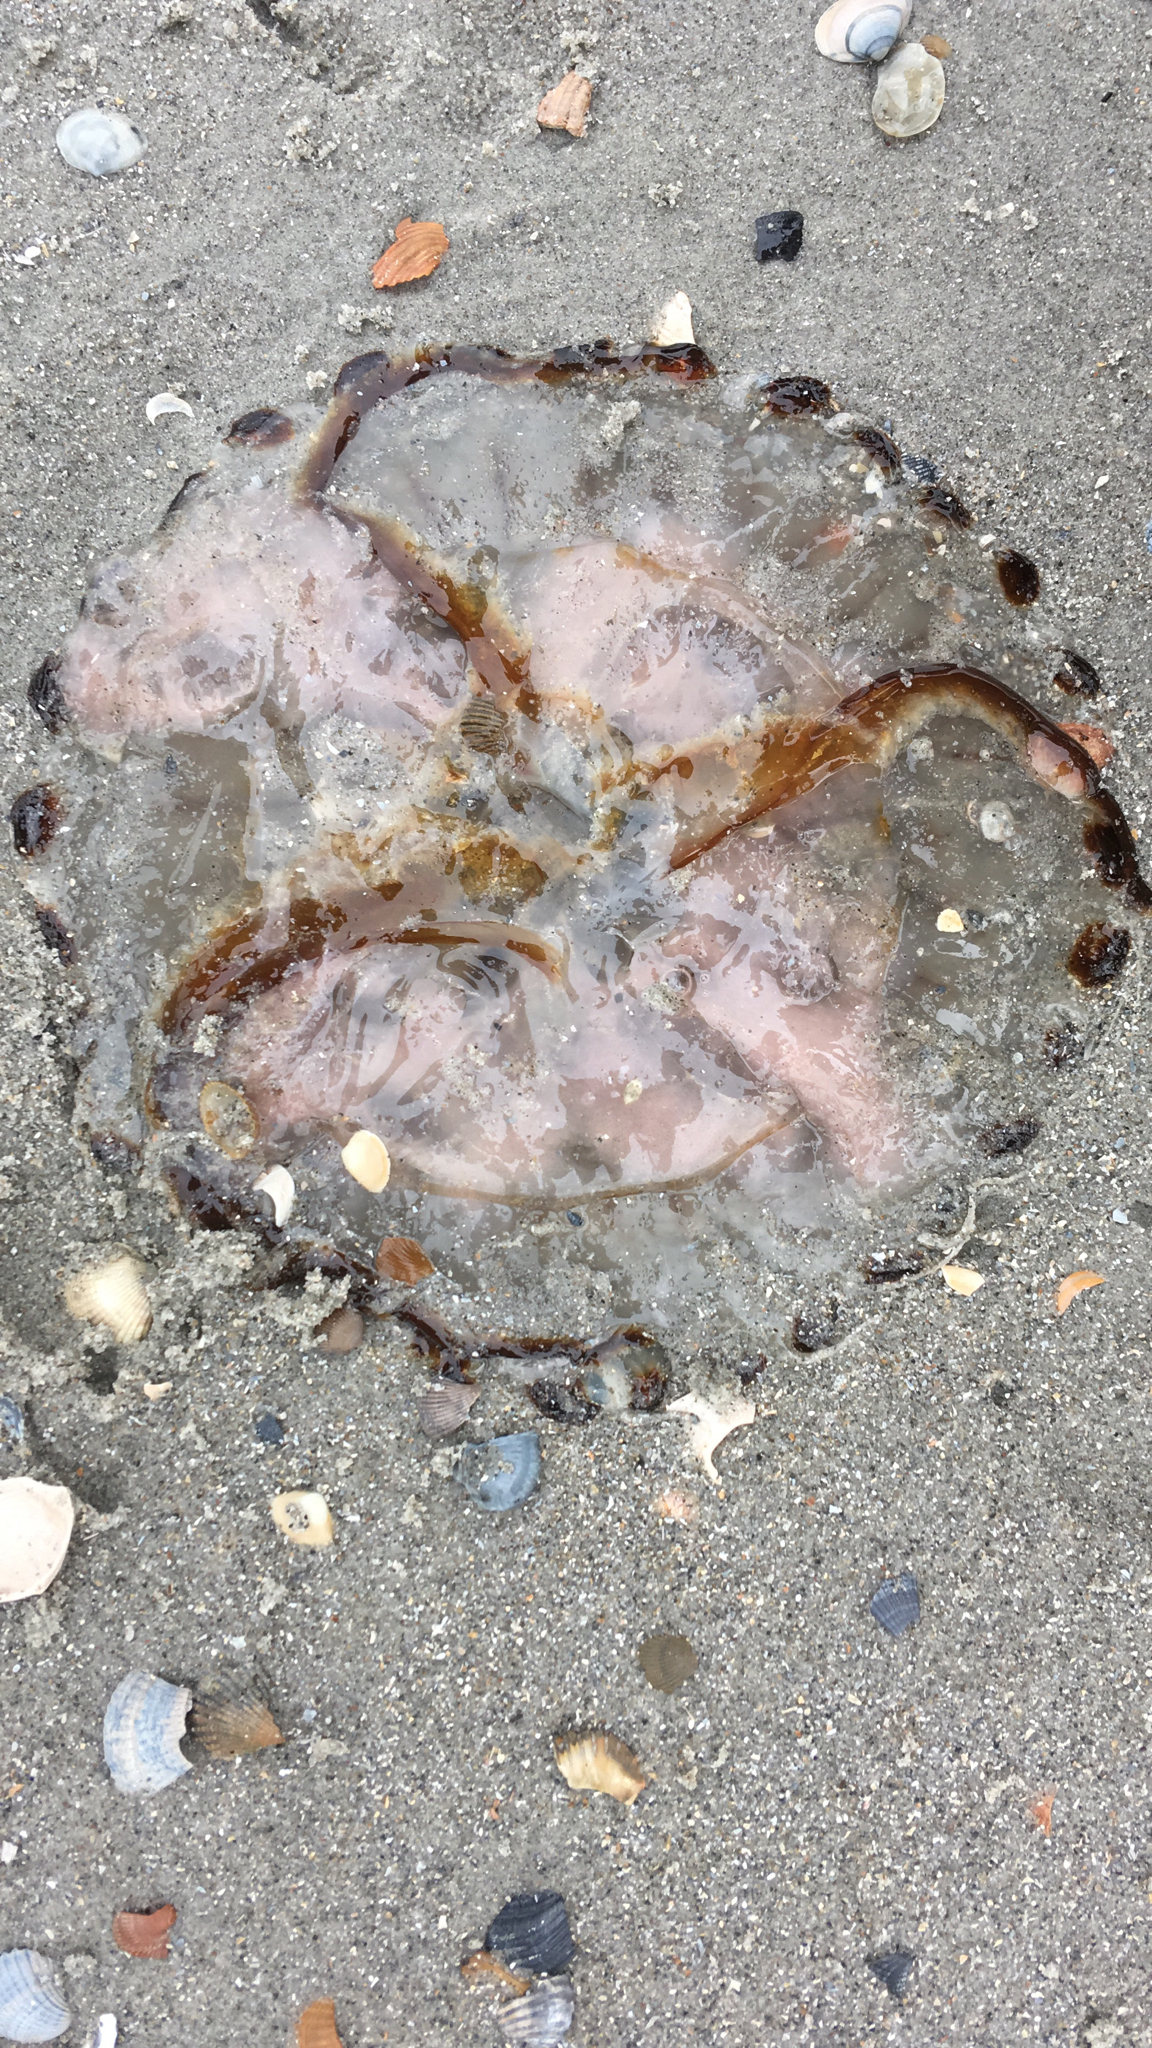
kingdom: Animalia
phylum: Cnidaria
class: Scyphozoa
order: Semaeostomeae
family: Pelagiidae
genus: Chrysaora
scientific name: Chrysaora hysoscella
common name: Compass jellyfish
